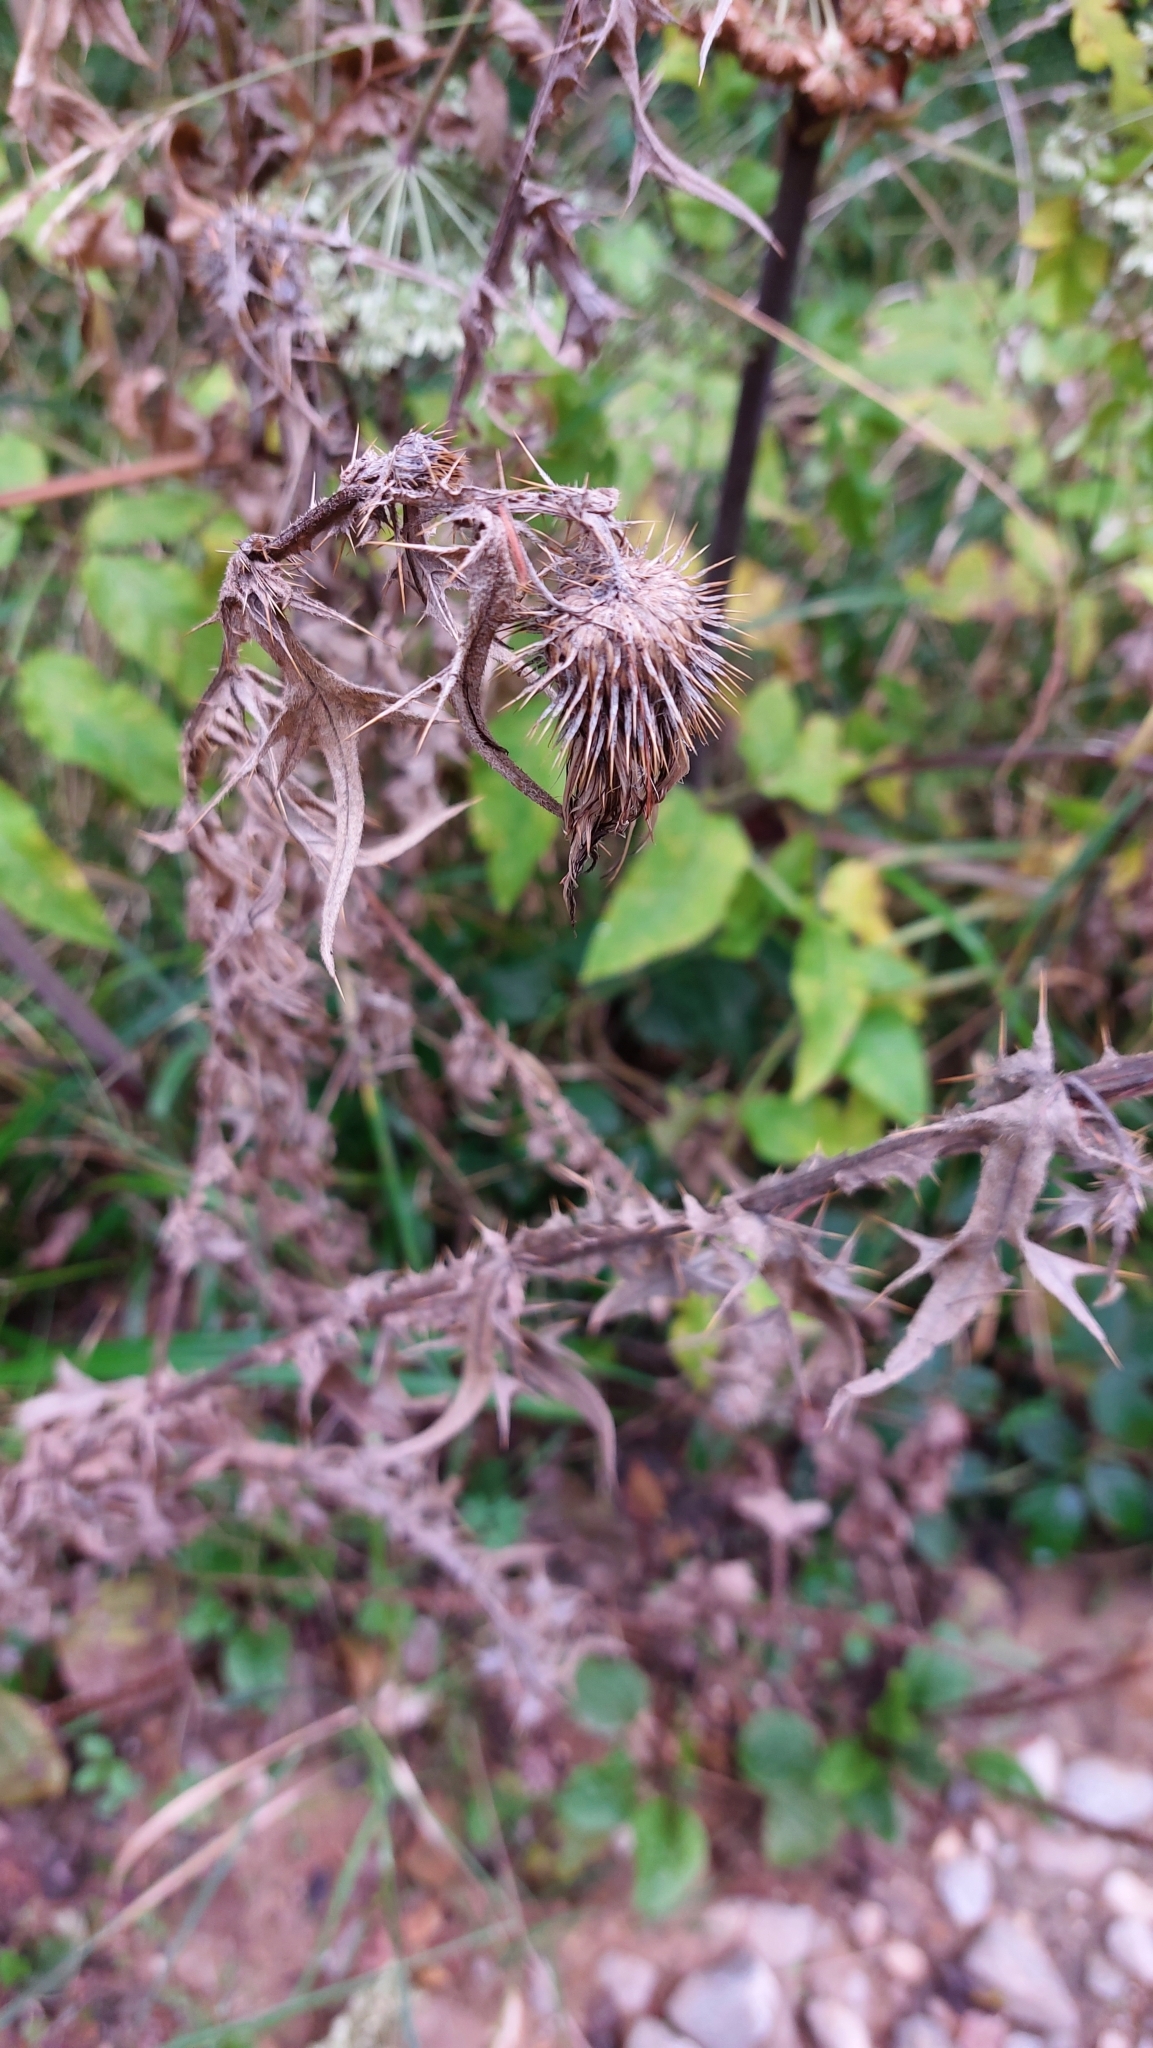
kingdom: Plantae
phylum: Tracheophyta
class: Magnoliopsida
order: Asterales
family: Asteraceae
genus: Cirsium
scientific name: Cirsium vulgare
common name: Bull thistle
